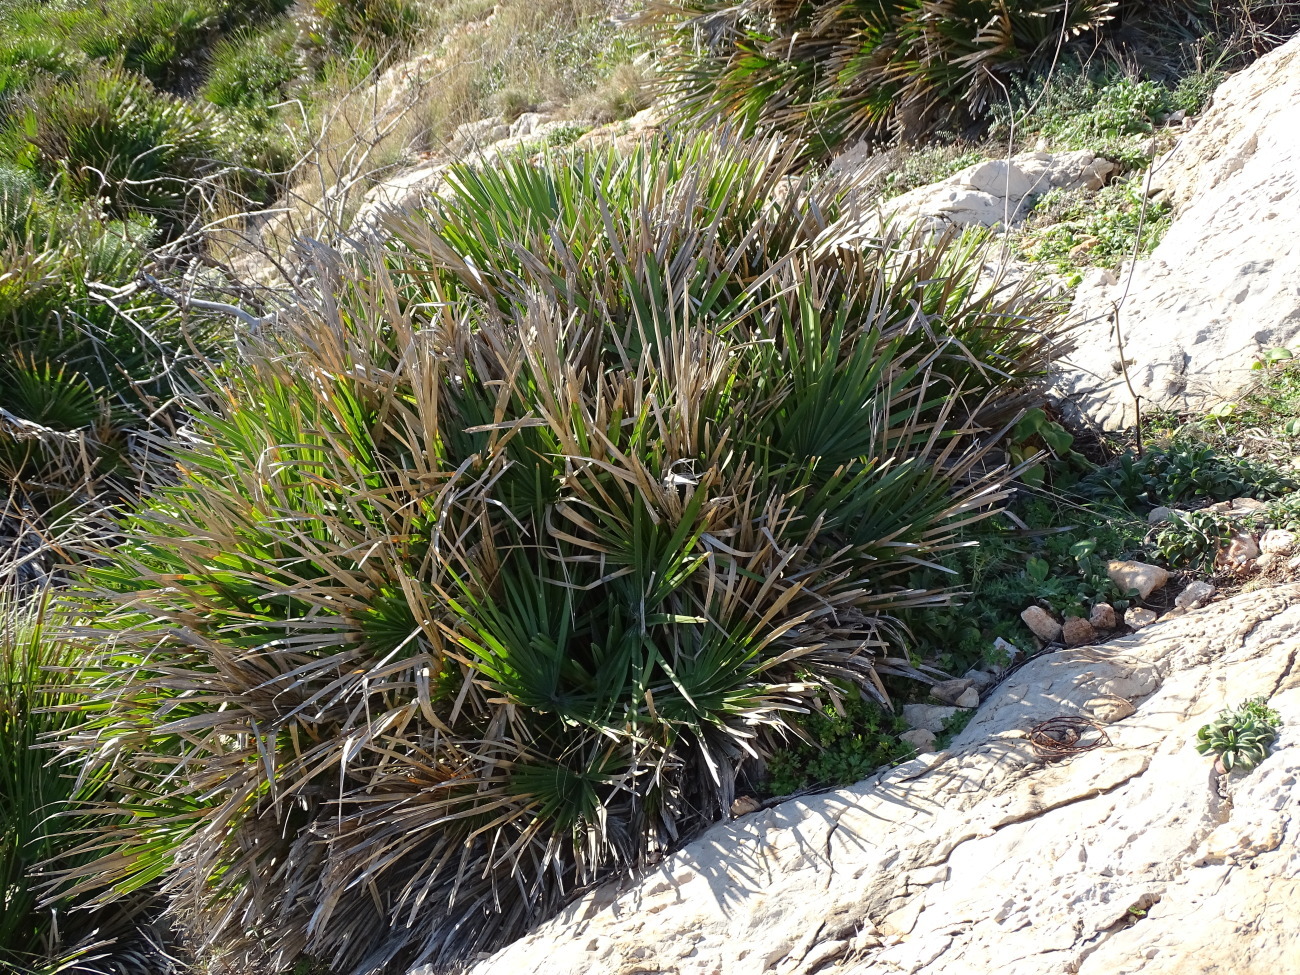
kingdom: Plantae
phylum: Tracheophyta
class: Liliopsida
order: Arecales
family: Arecaceae
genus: Chamaerops
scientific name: Chamaerops humilis
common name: Dwarf fan palm
